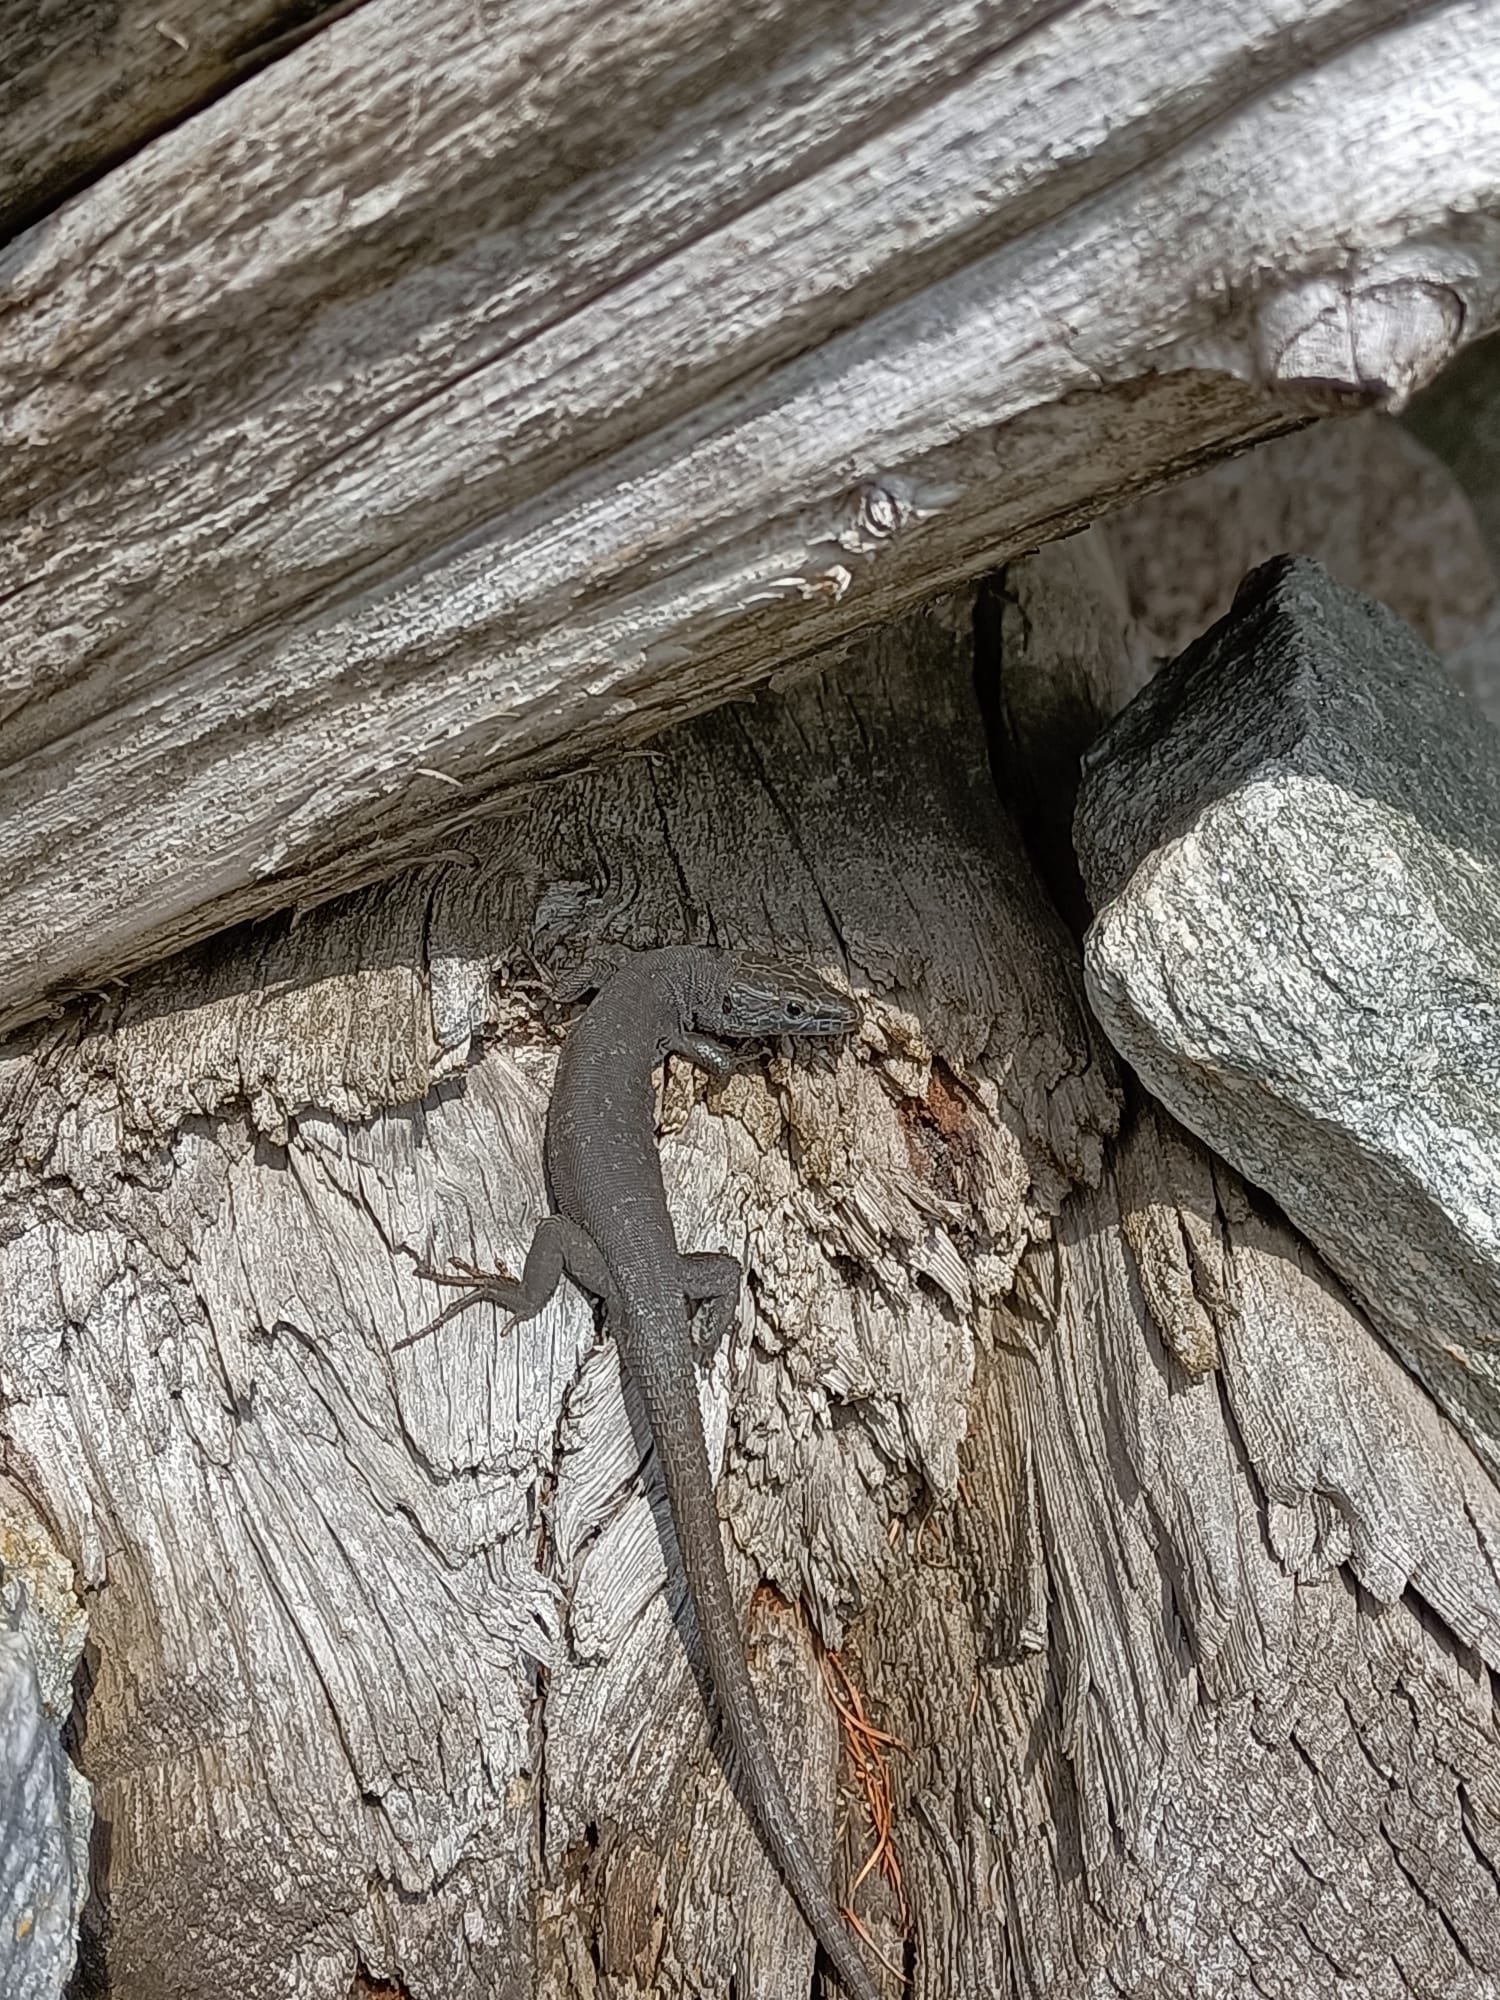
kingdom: Animalia
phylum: Chordata
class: Squamata
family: Lacertidae
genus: Podarcis
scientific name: Podarcis muralis
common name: Common wall lizard
